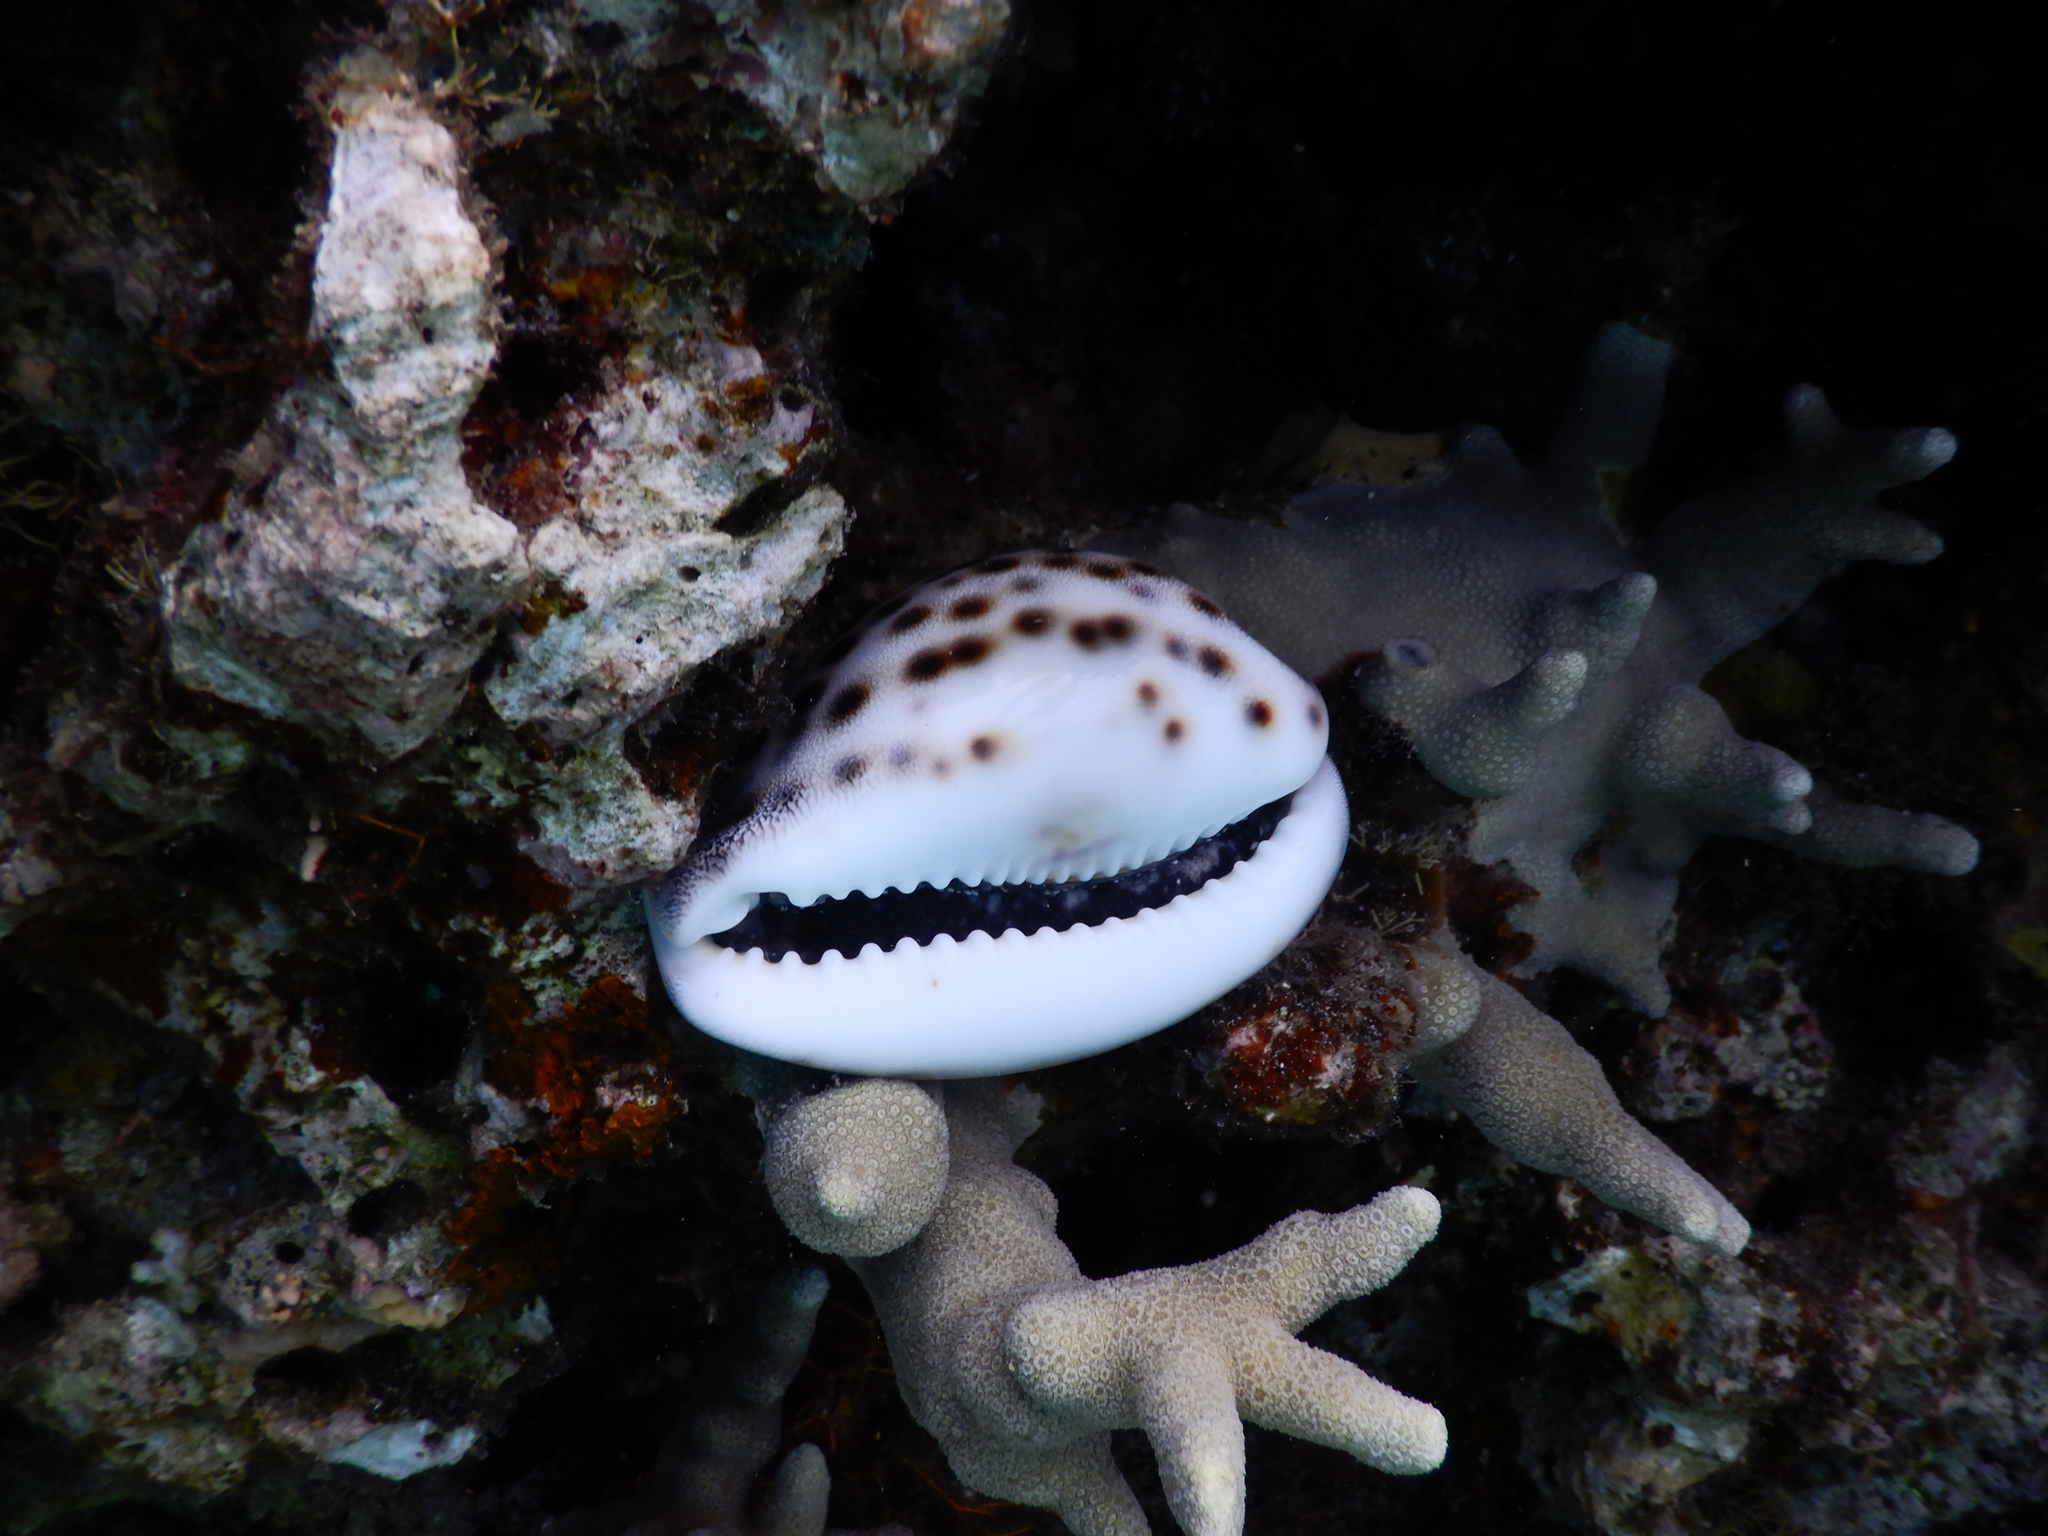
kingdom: Animalia
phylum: Mollusca
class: Gastropoda
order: Littorinimorpha
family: Cypraeidae
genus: Cypraea
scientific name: Cypraea tigris
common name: Tiger cowrie
